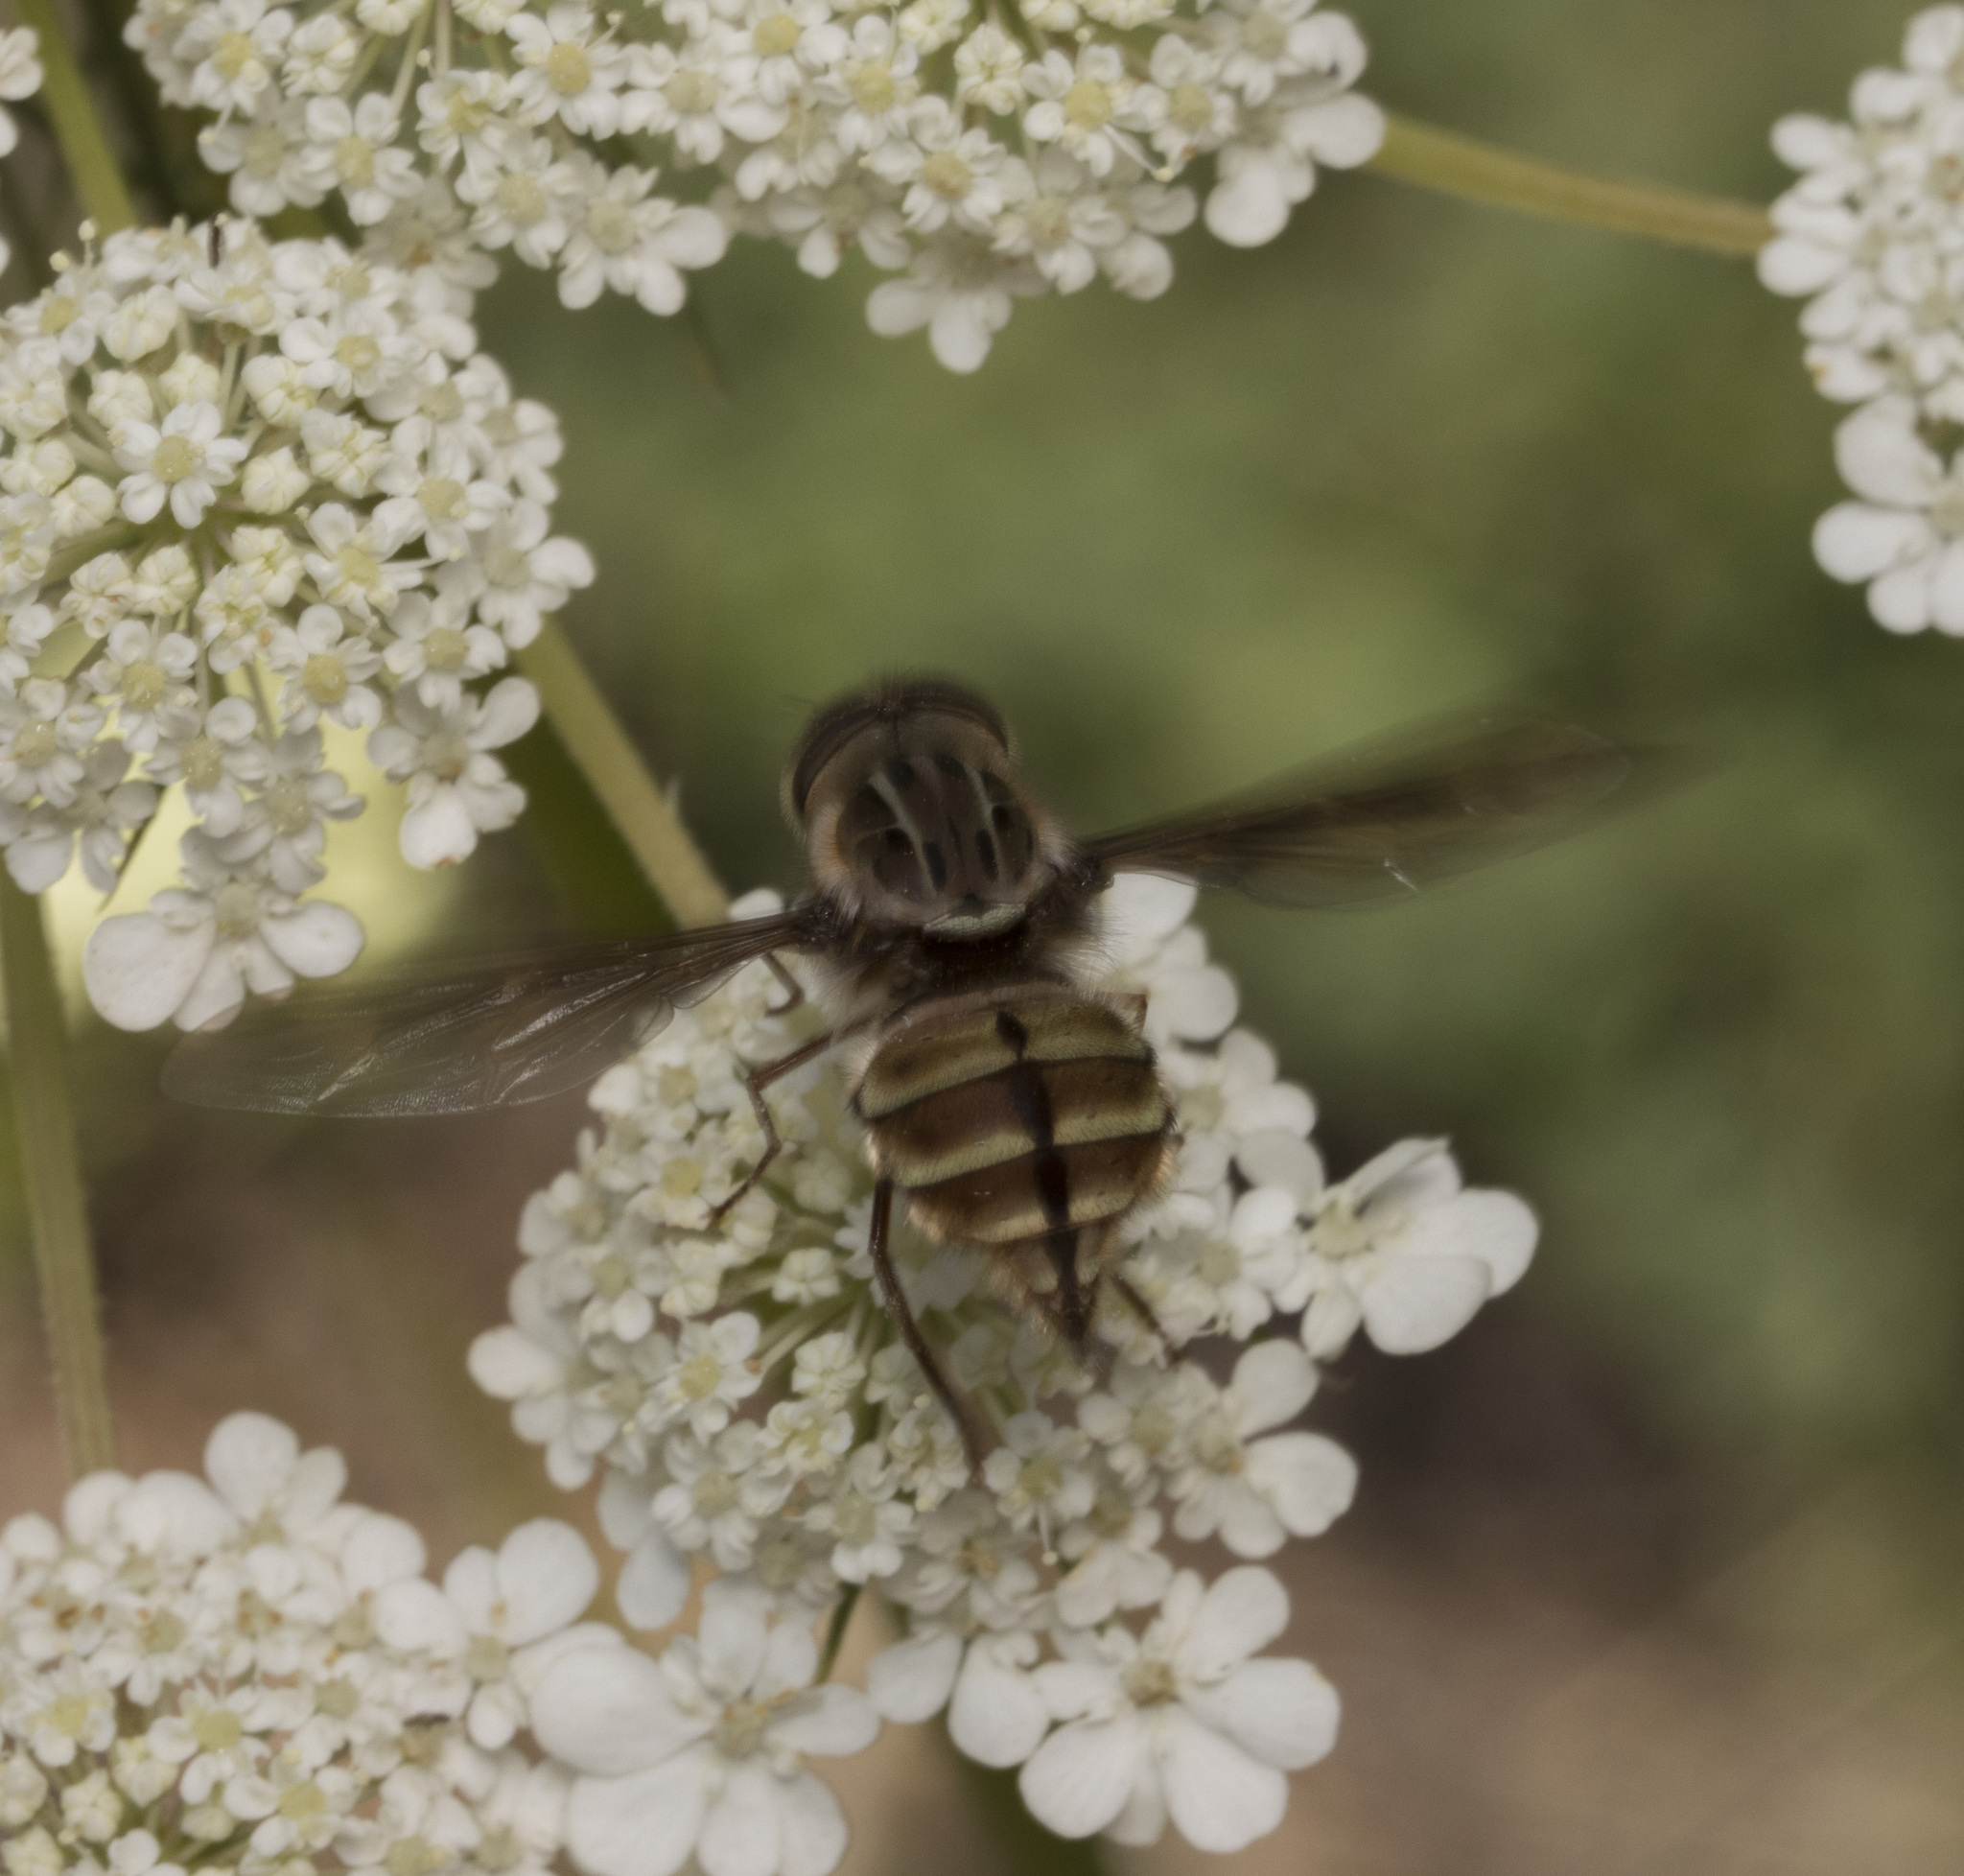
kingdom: Animalia
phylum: Arthropoda
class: Insecta
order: Diptera
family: Nemestrinidae
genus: Trichophthalma
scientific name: Trichophthalma nubipennis
